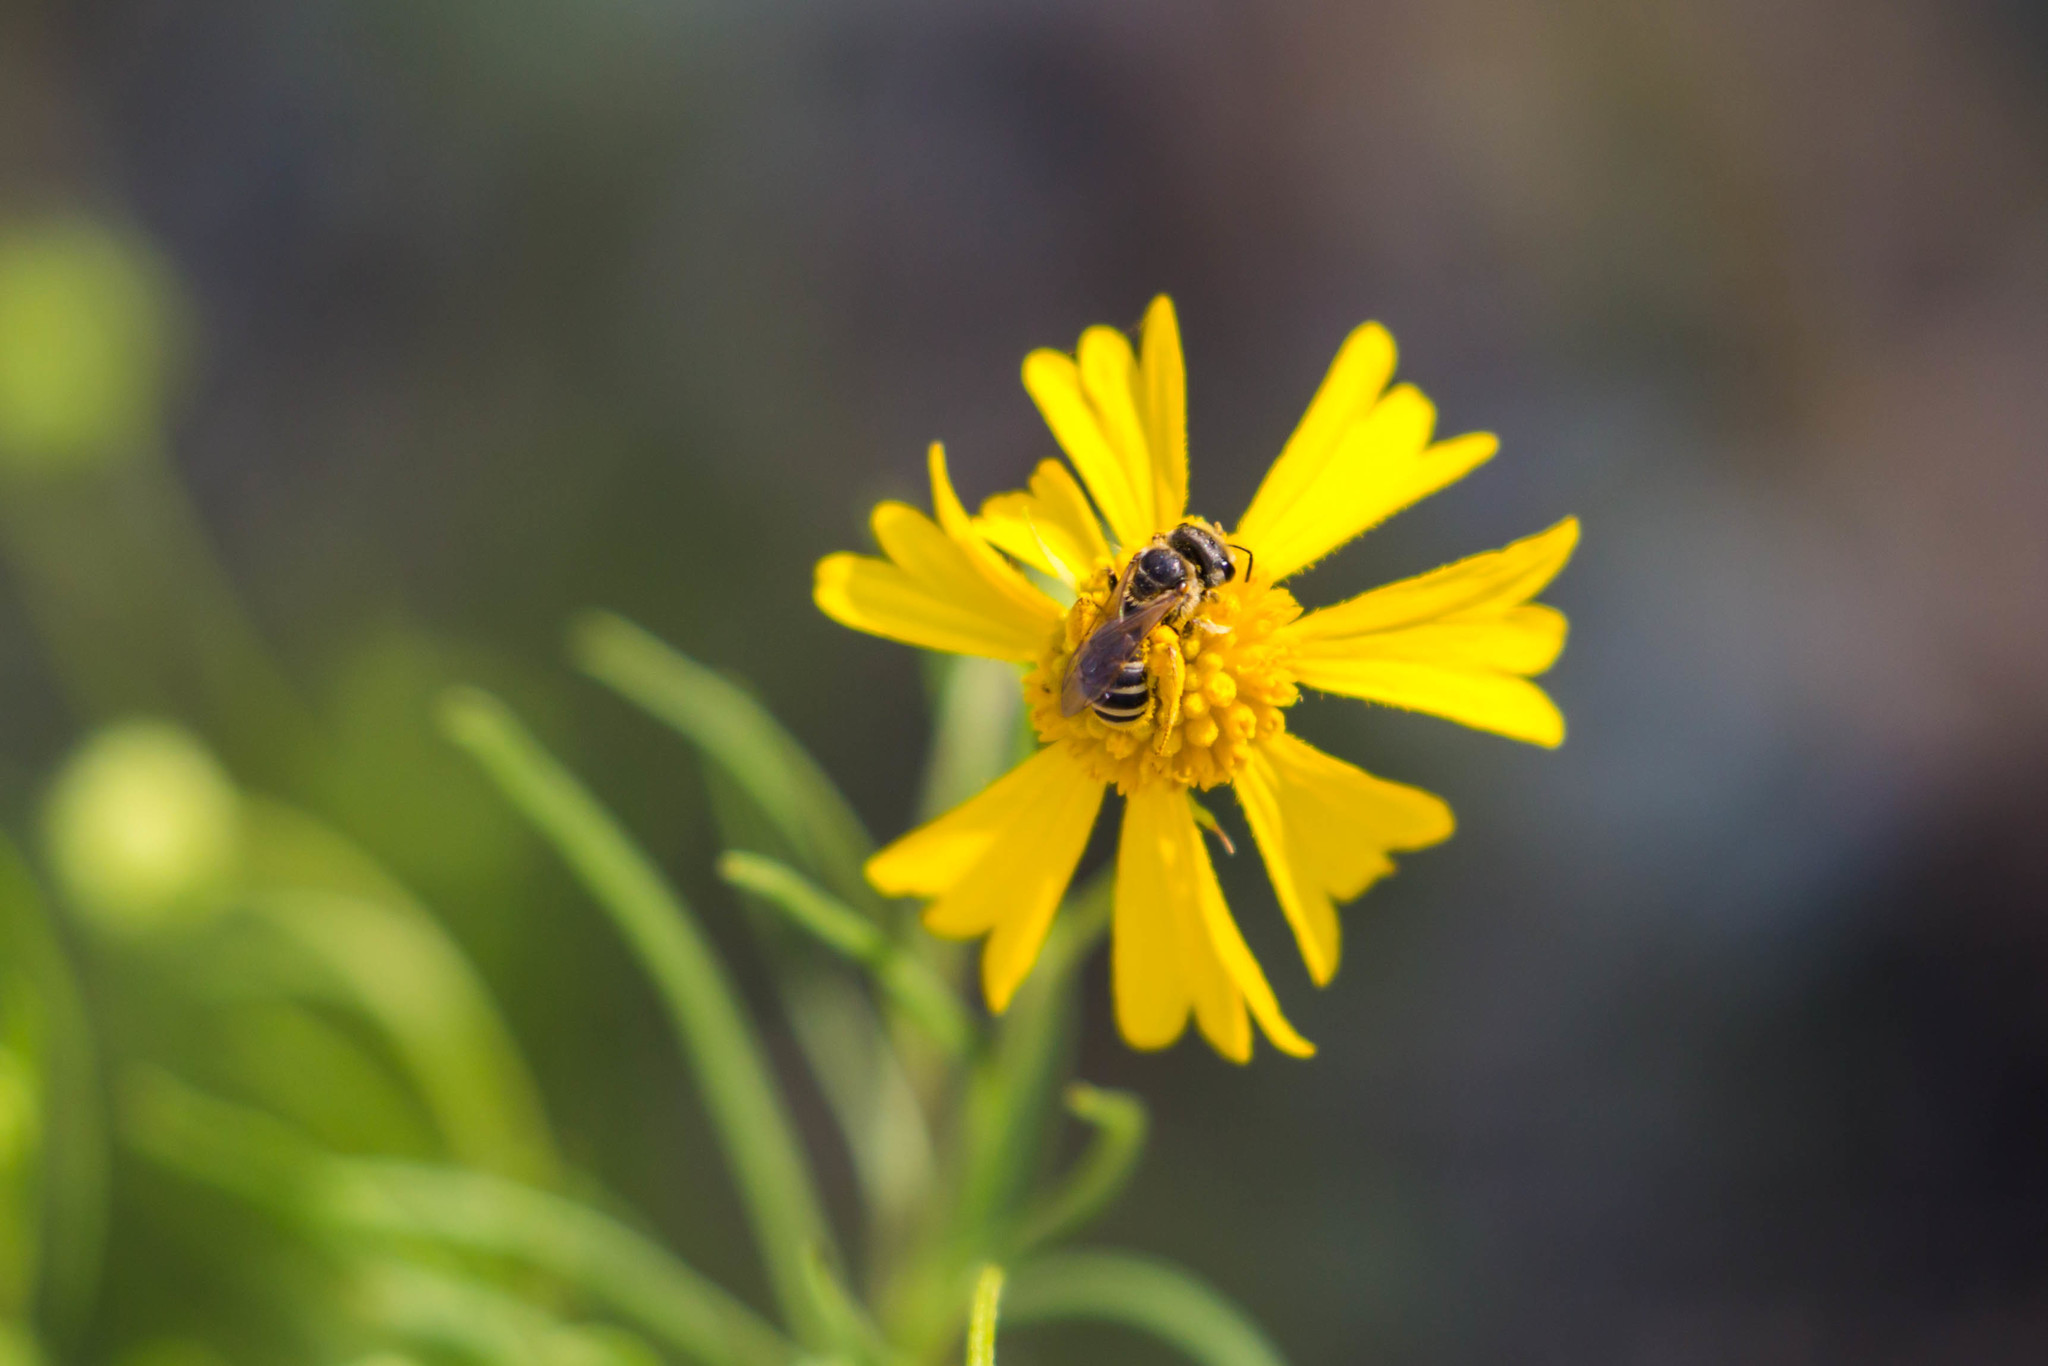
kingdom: Animalia
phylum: Arthropoda
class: Insecta
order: Hymenoptera
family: Halictidae
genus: Halictus
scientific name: Halictus ligatus
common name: Ligated furrow bee
